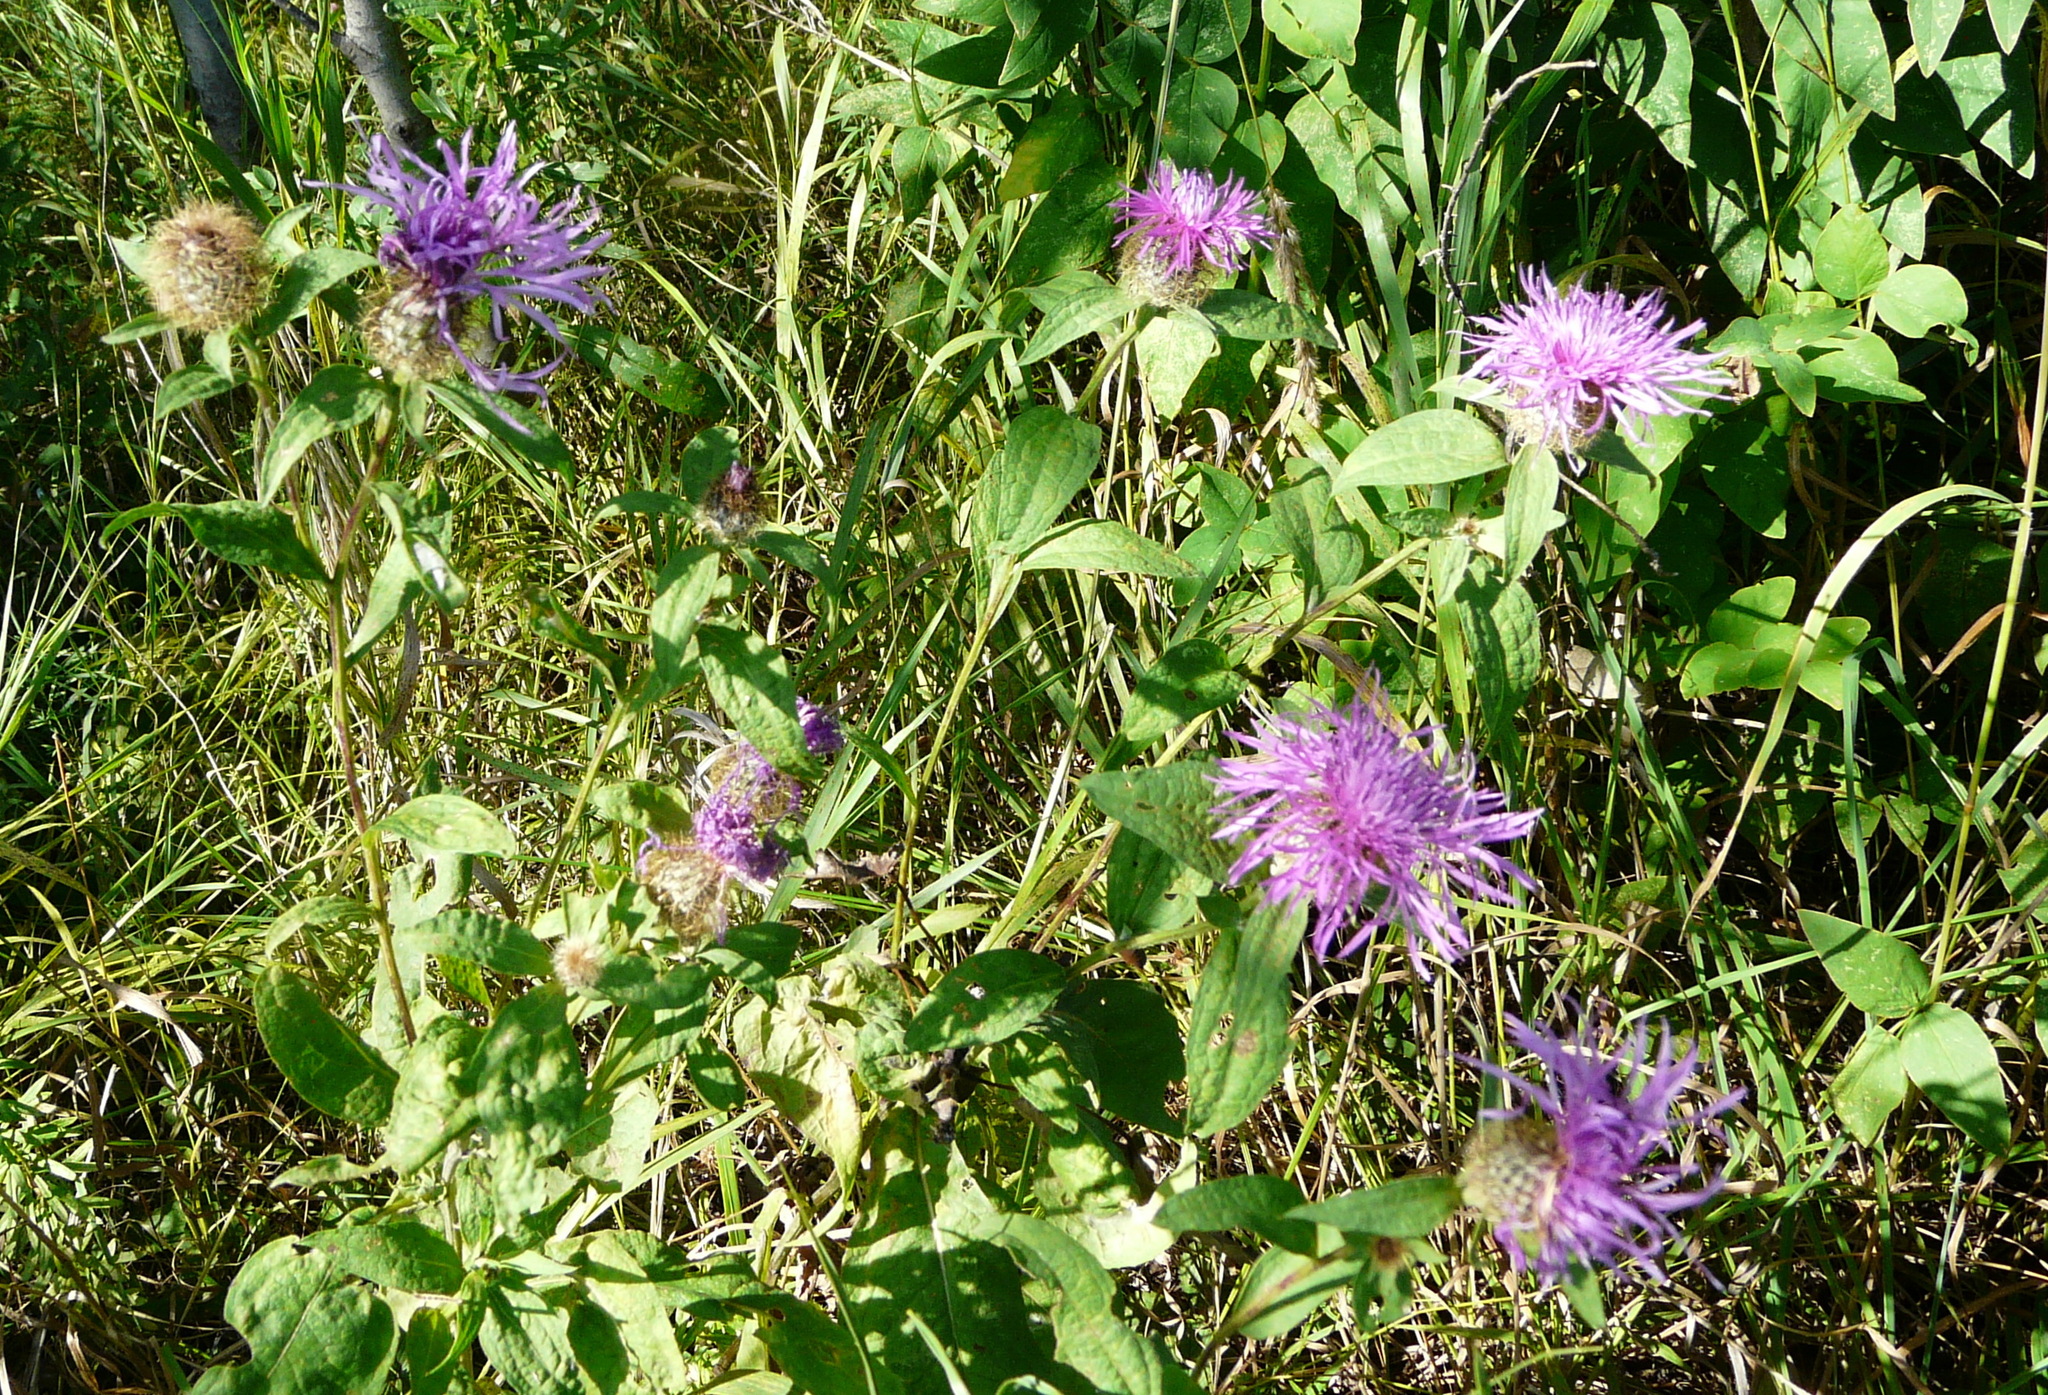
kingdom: Plantae
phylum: Tracheophyta
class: Magnoliopsida
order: Asterales
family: Asteraceae
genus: Centaurea
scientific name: Centaurea pseudophrygia
